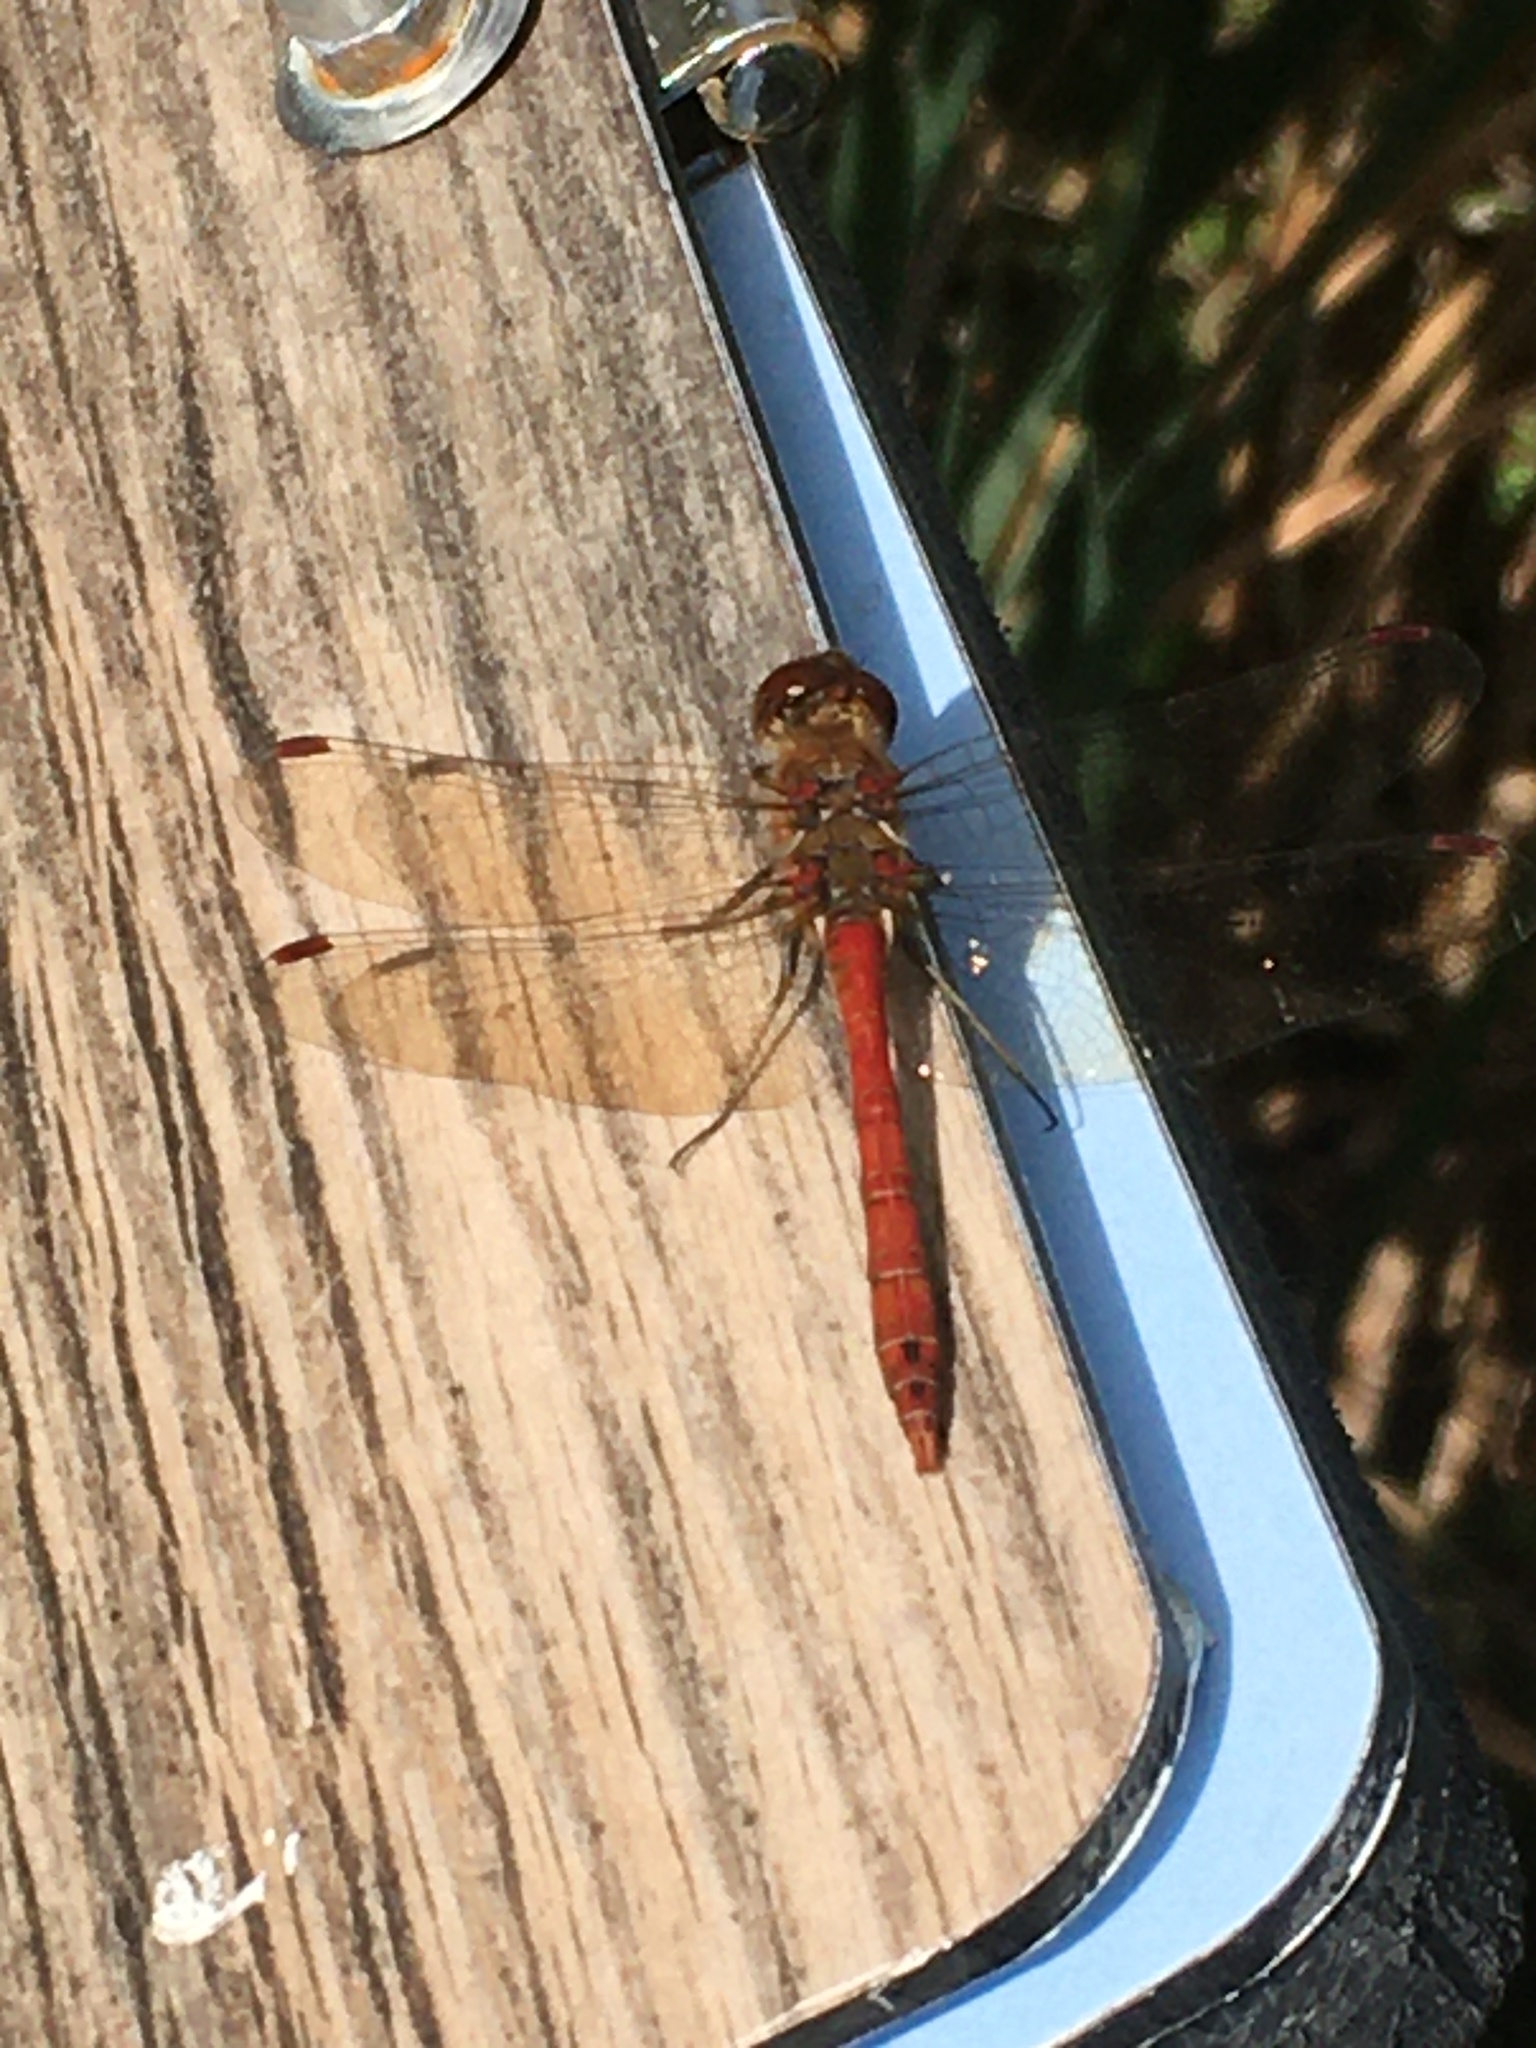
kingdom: Animalia
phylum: Arthropoda
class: Insecta
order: Odonata
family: Libellulidae
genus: Sympetrum
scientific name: Sympetrum striolatum
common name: Common darter
